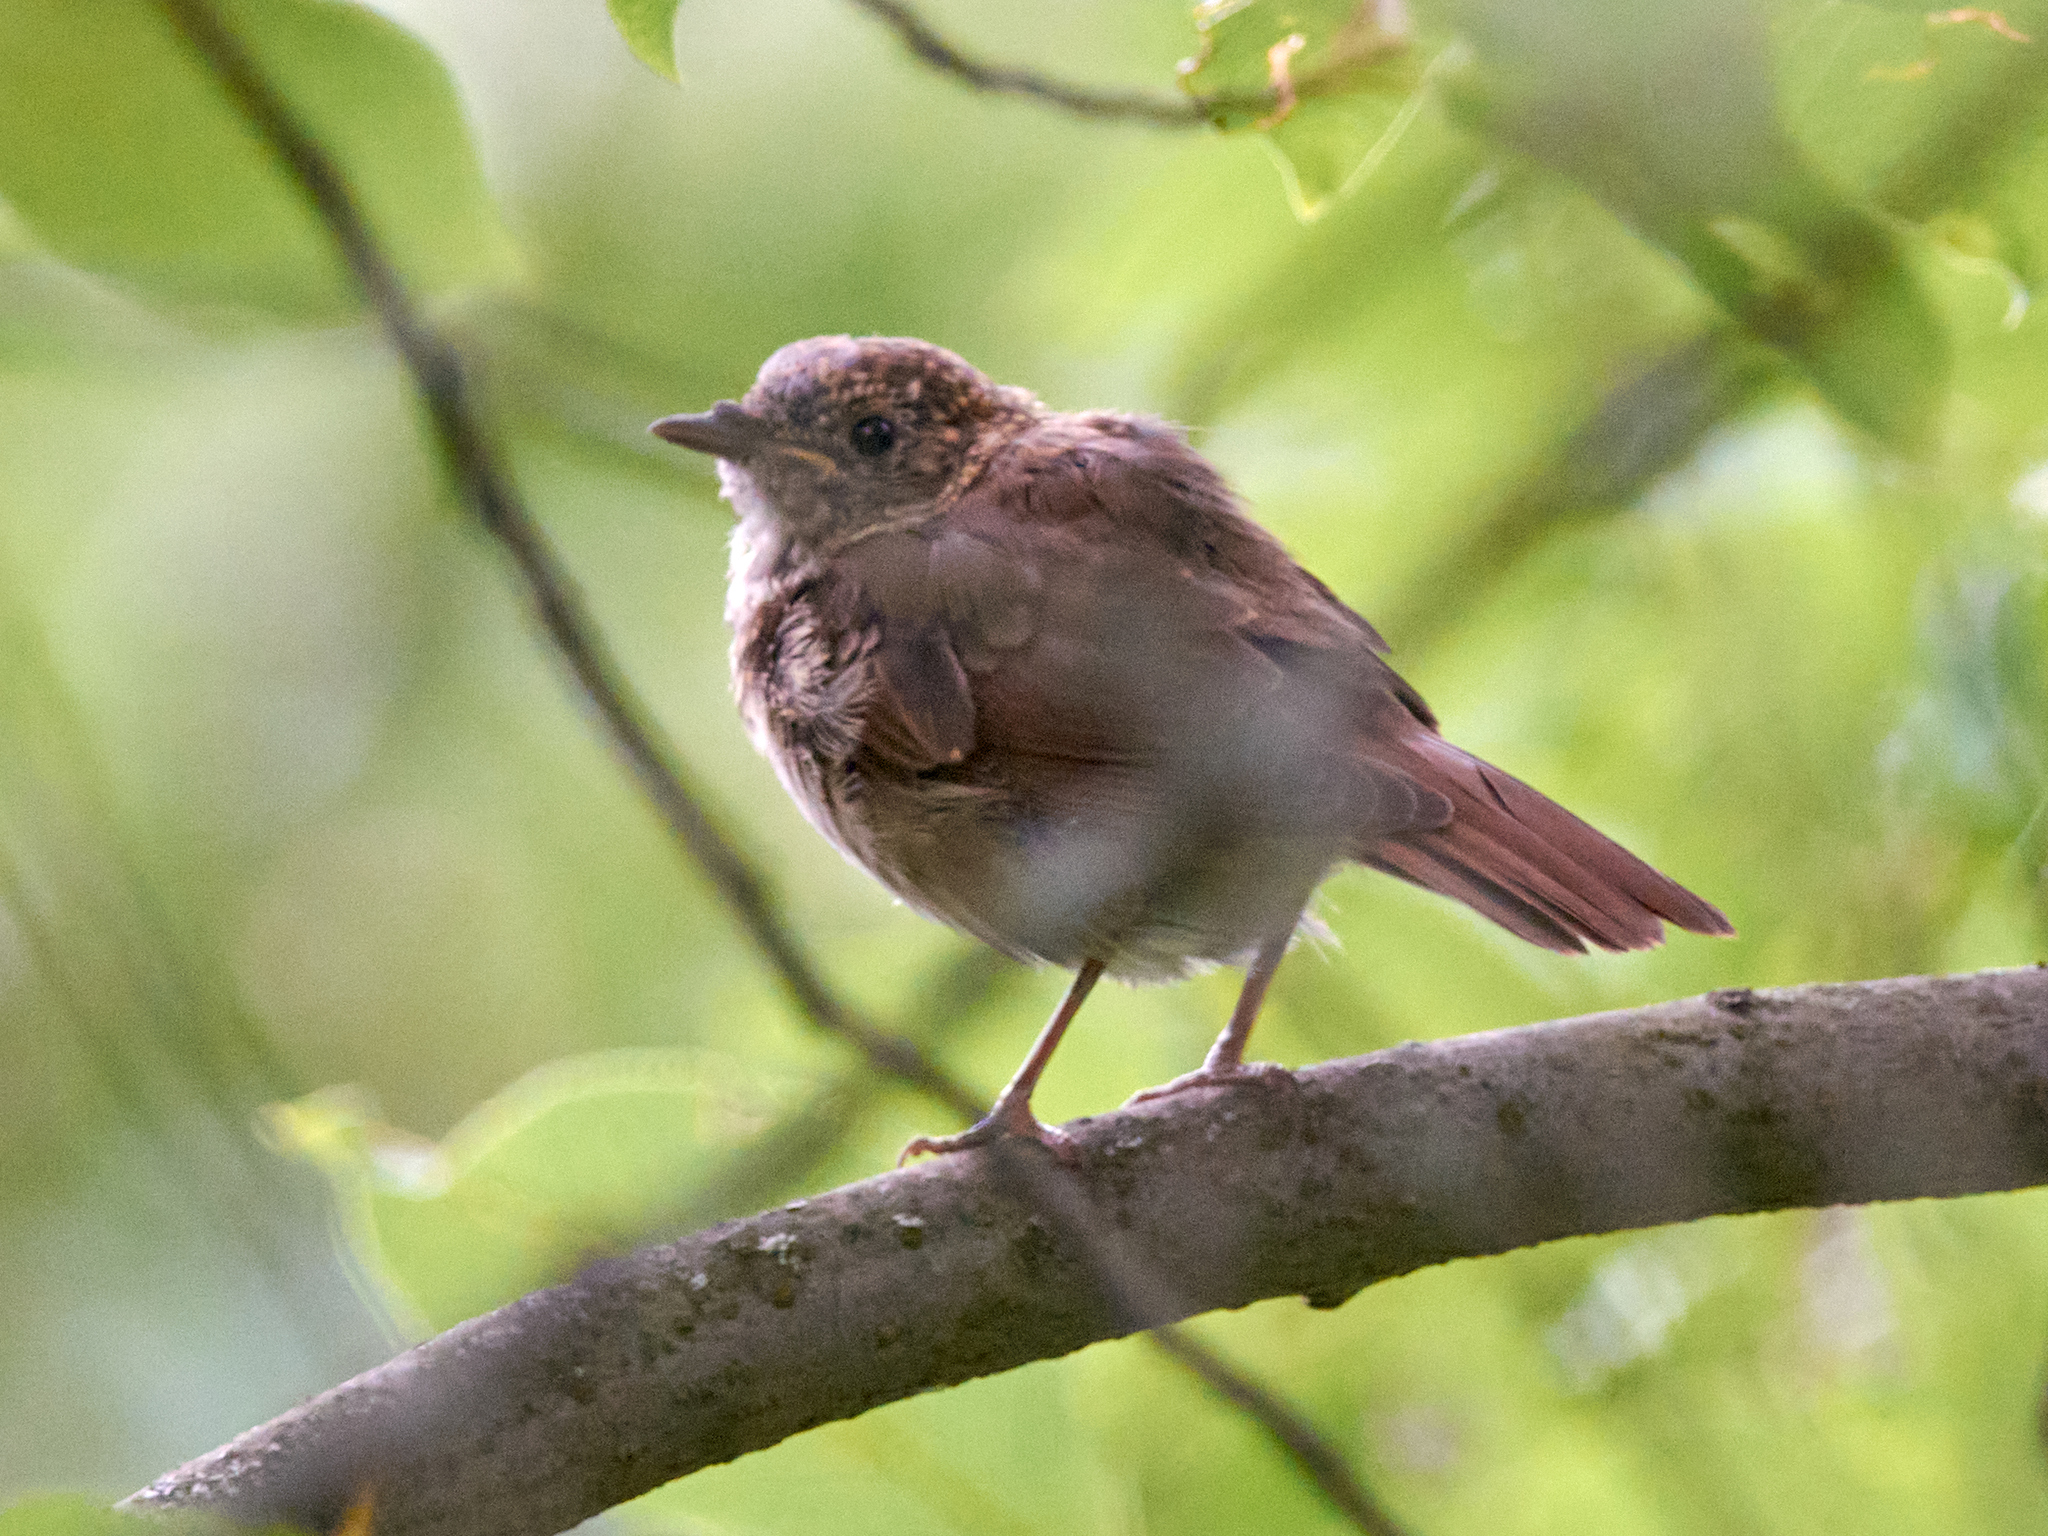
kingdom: Animalia
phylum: Chordata
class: Aves
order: Passeriformes
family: Muscicapidae
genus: Luscinia
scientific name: Luscinia luscinia
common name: Thrush nightingale
